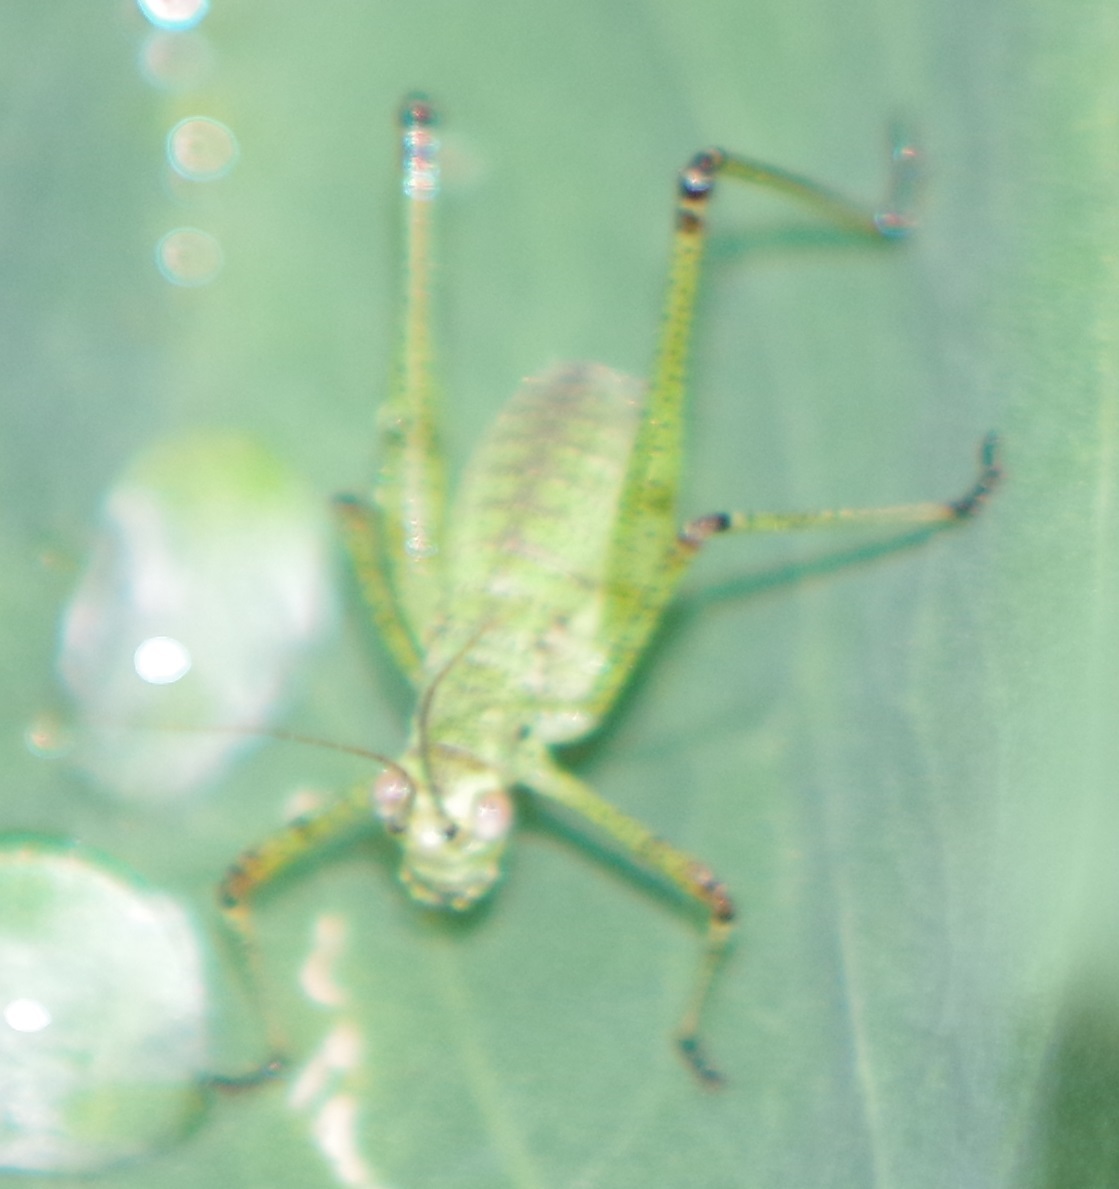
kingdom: Animalia
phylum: Arthropoda
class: Insecta
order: Orthoptera
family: Tettigoniidae
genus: Phaneroptera
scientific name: Phaneroptera
